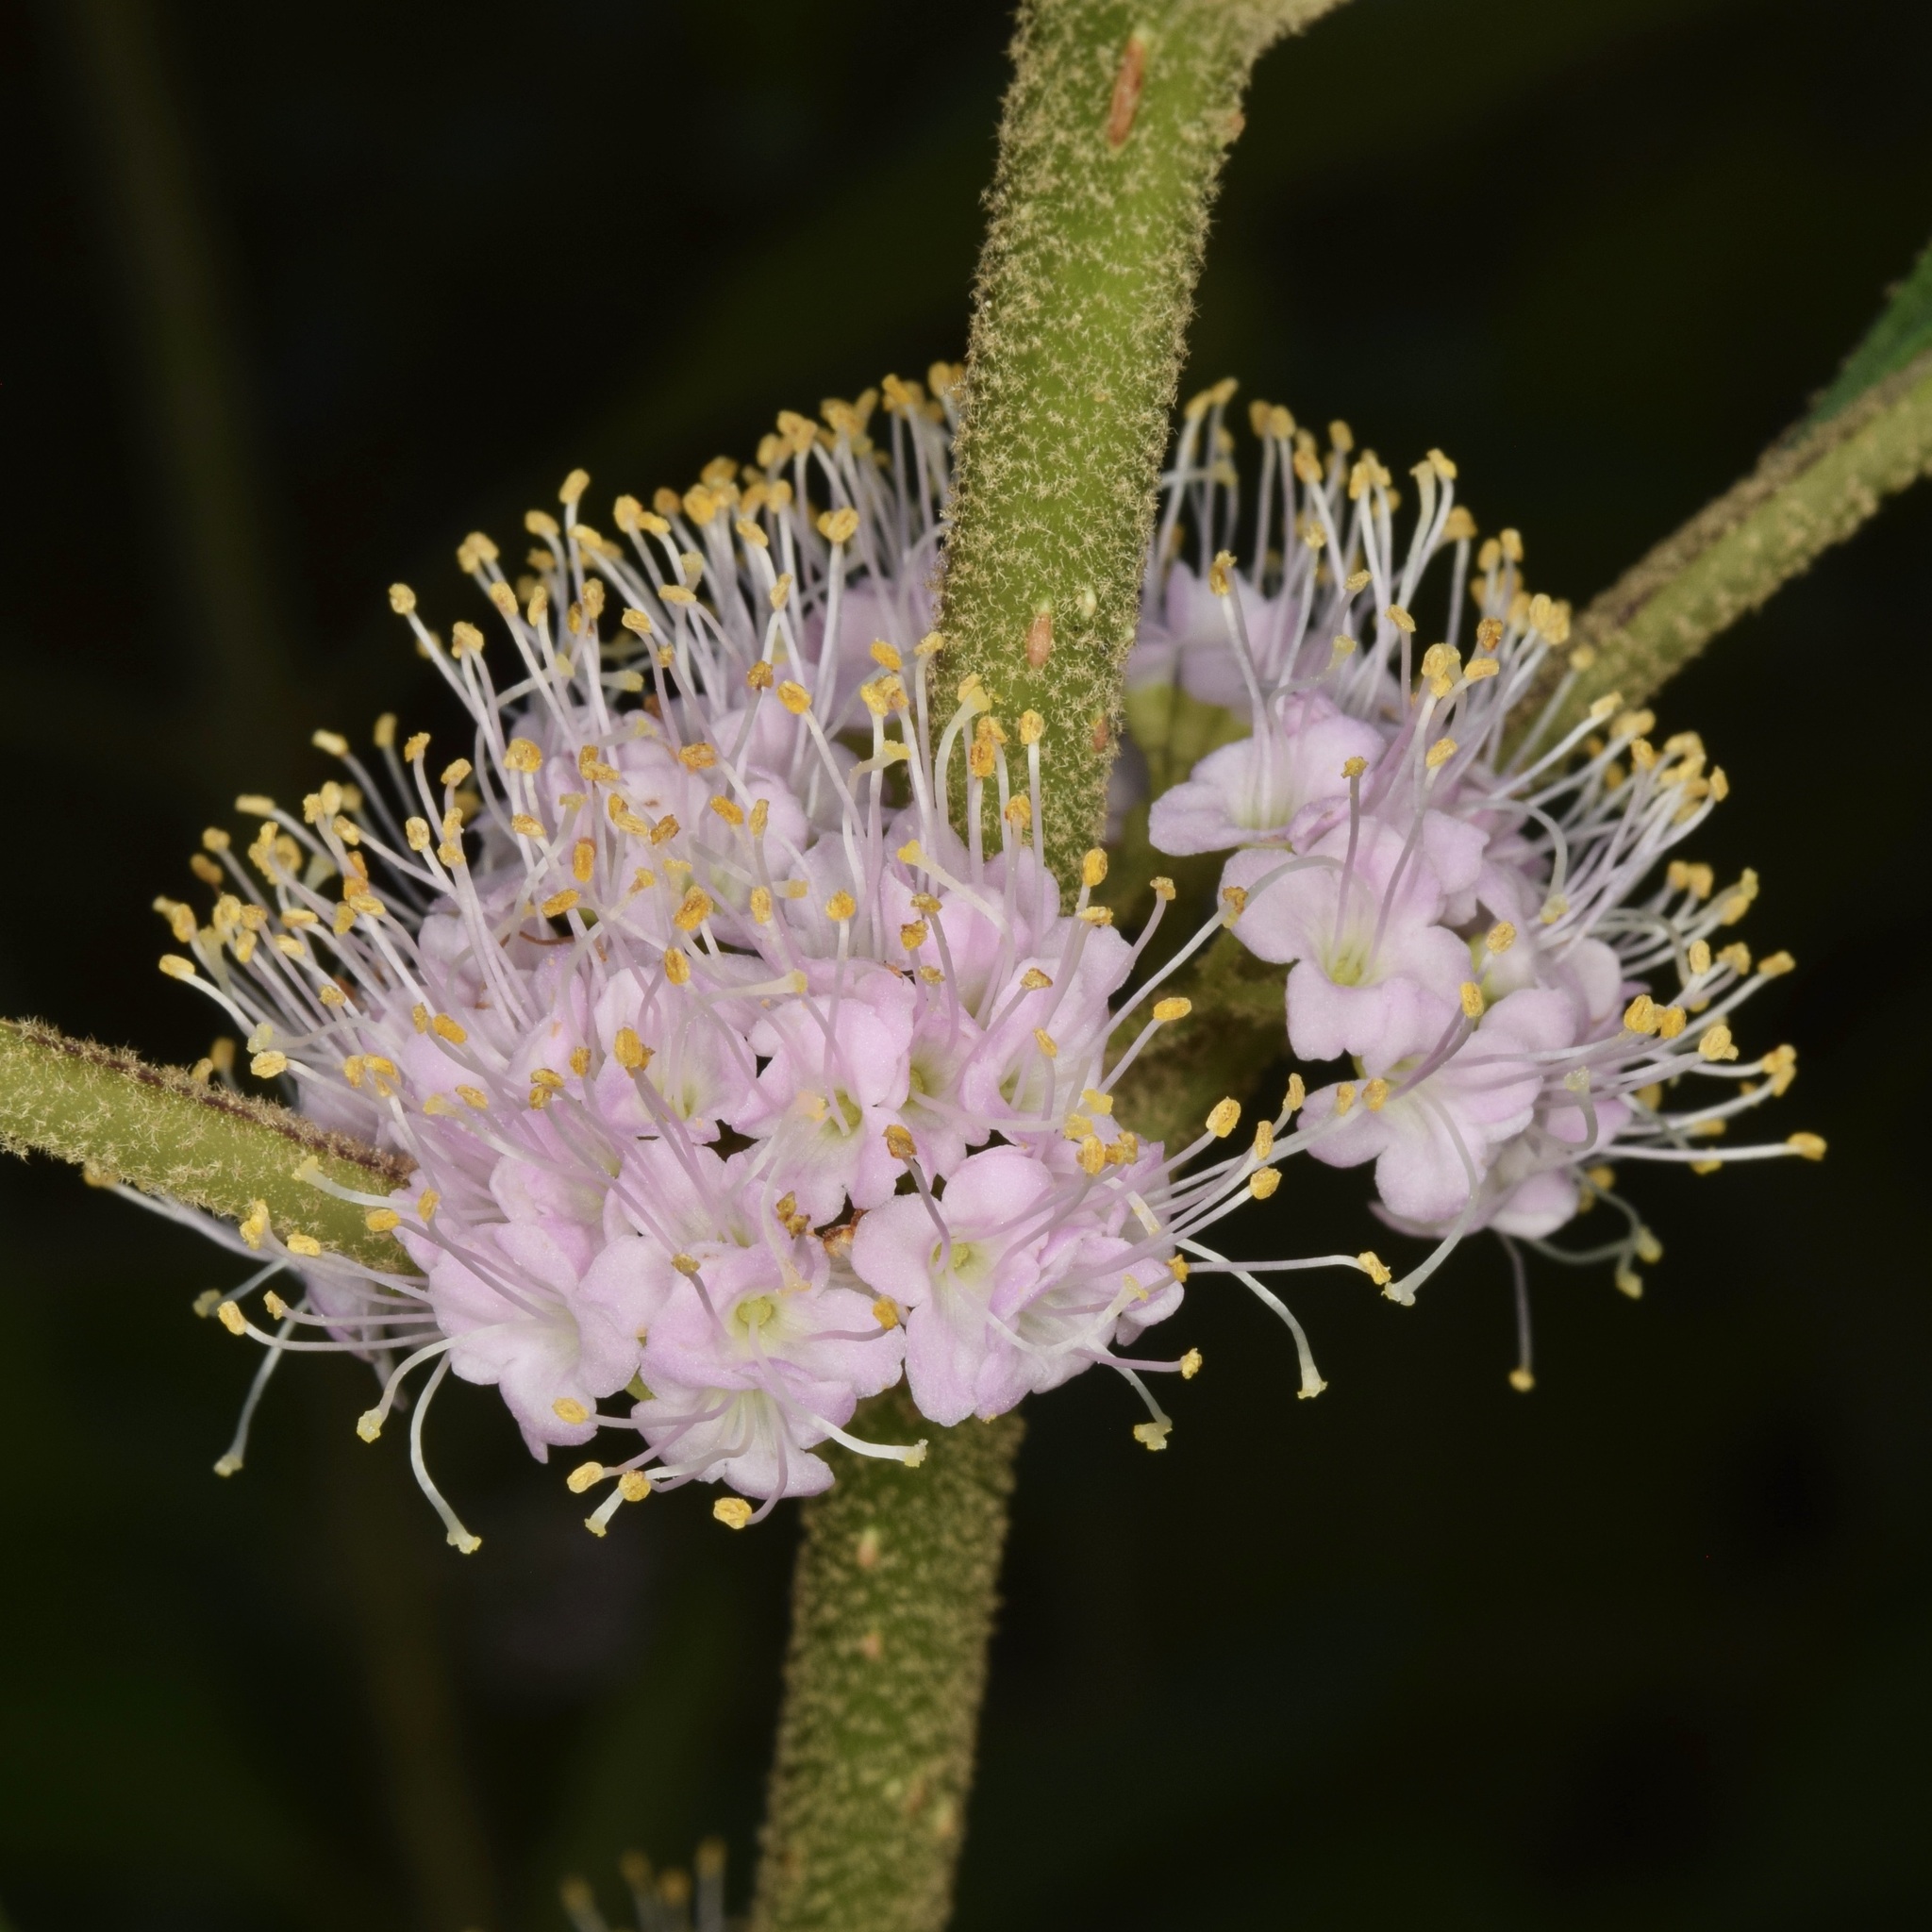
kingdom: Plantae
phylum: Tracheophyta
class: Magnoliopsida
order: Lamiales
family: Lamiaceae
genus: Callicarpa
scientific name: Callicarpa americana
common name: American beautyberry
